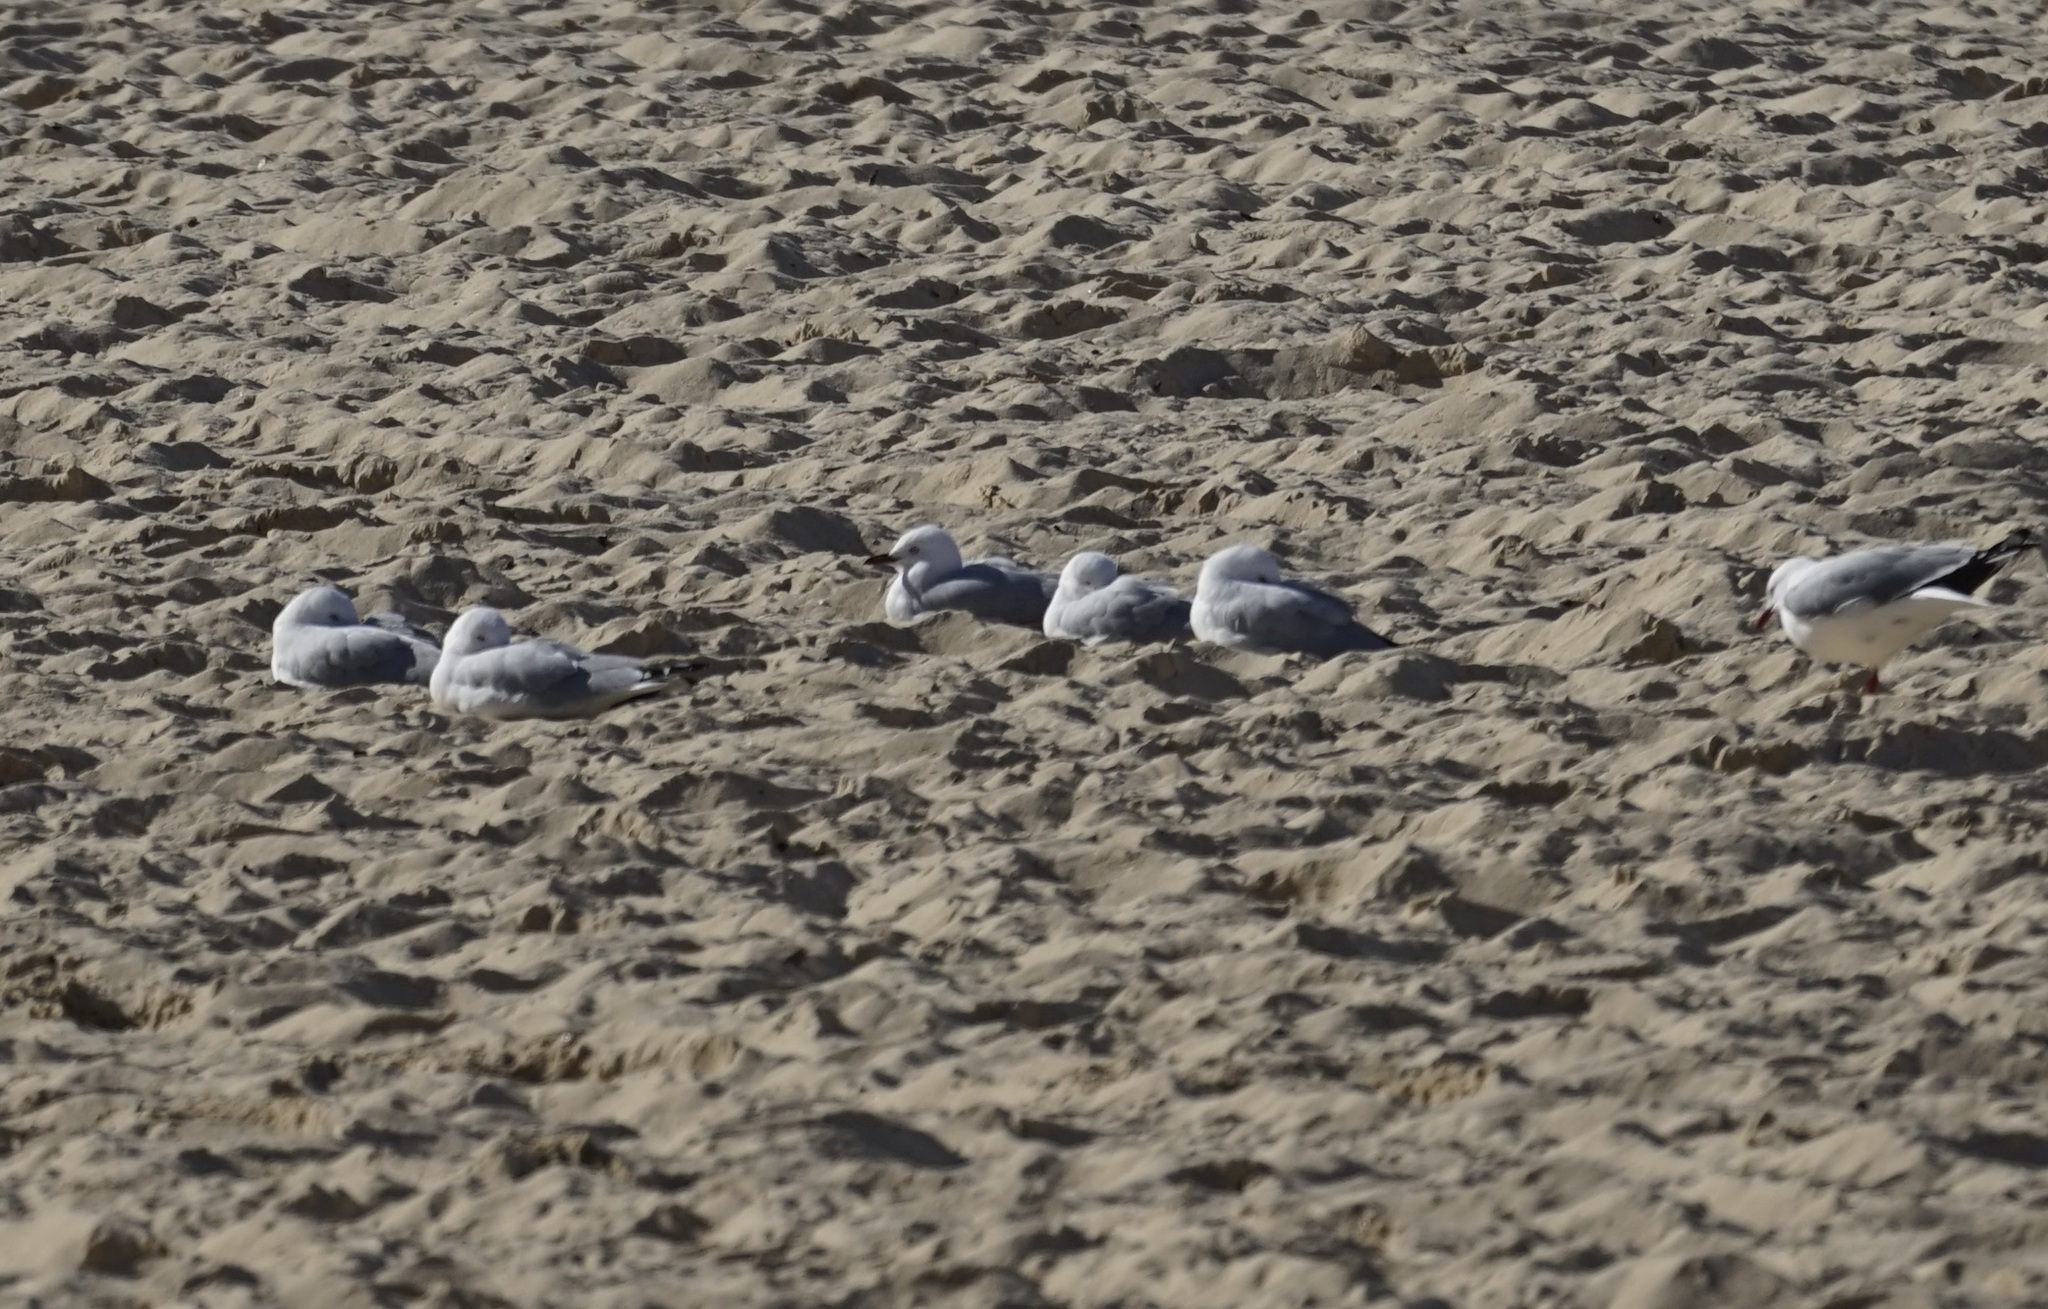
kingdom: Animalia
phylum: Chordata
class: Aves
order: Charadriiformes
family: Laridae
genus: Chroicocephalus
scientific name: Chroicocephalus novaehollandiae
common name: Silver gull
